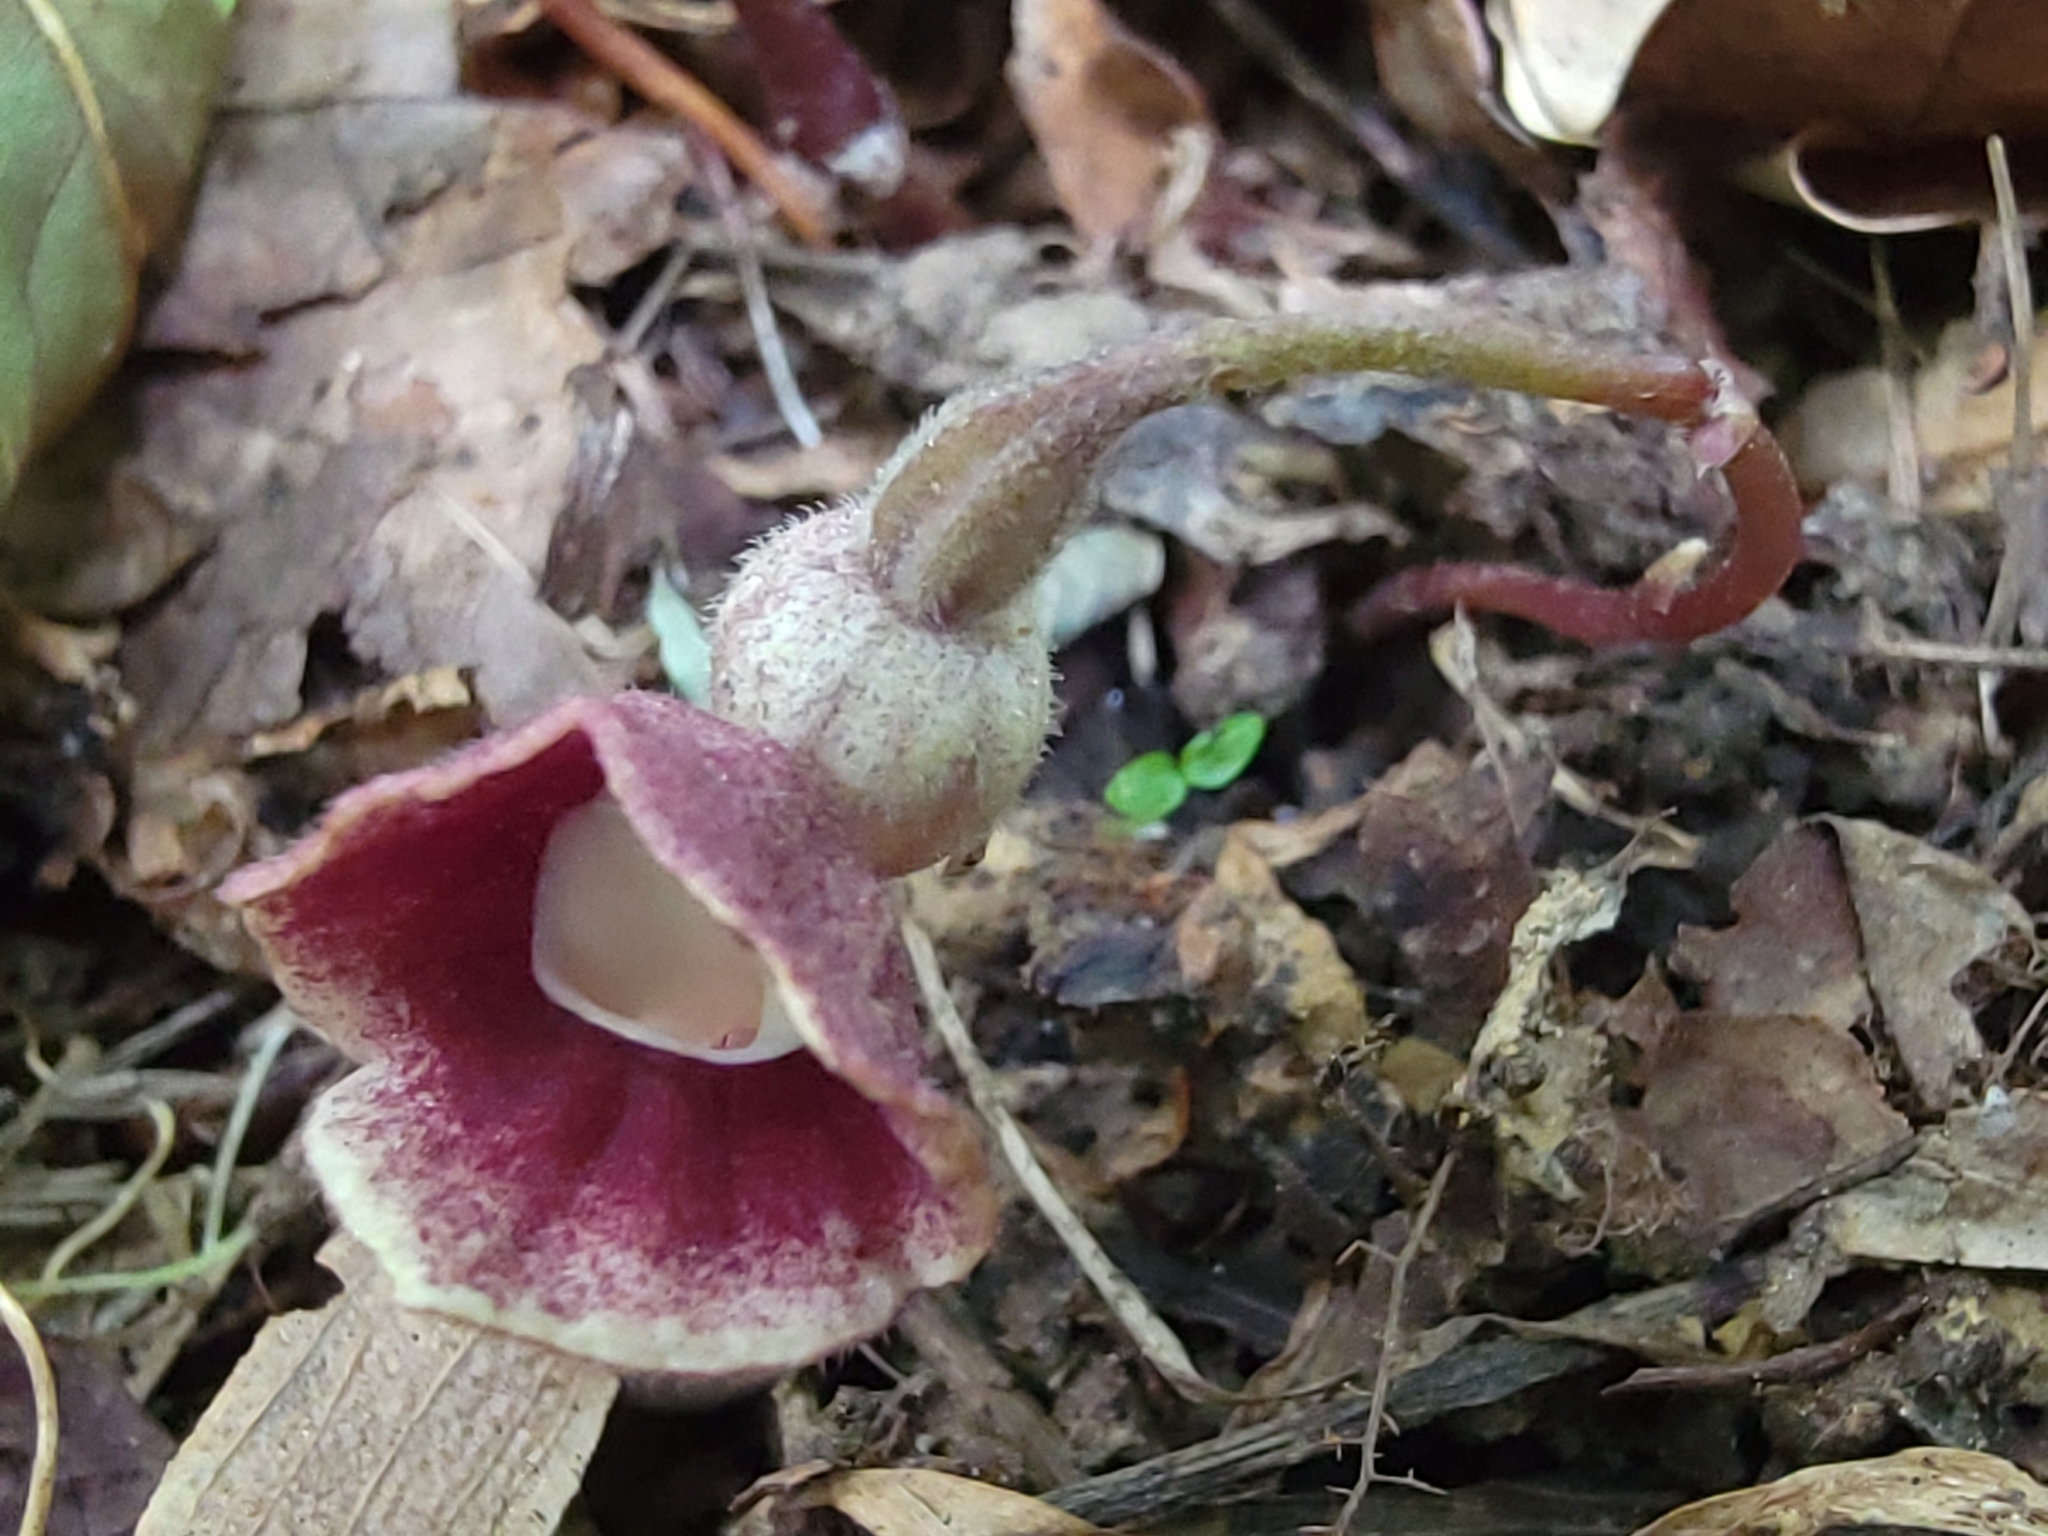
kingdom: Plantae
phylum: Tracheophyta
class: Magnoliopsida
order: Piperales
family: Aristolochiaceae
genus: Endodeca
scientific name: Endodeca serpentaria
